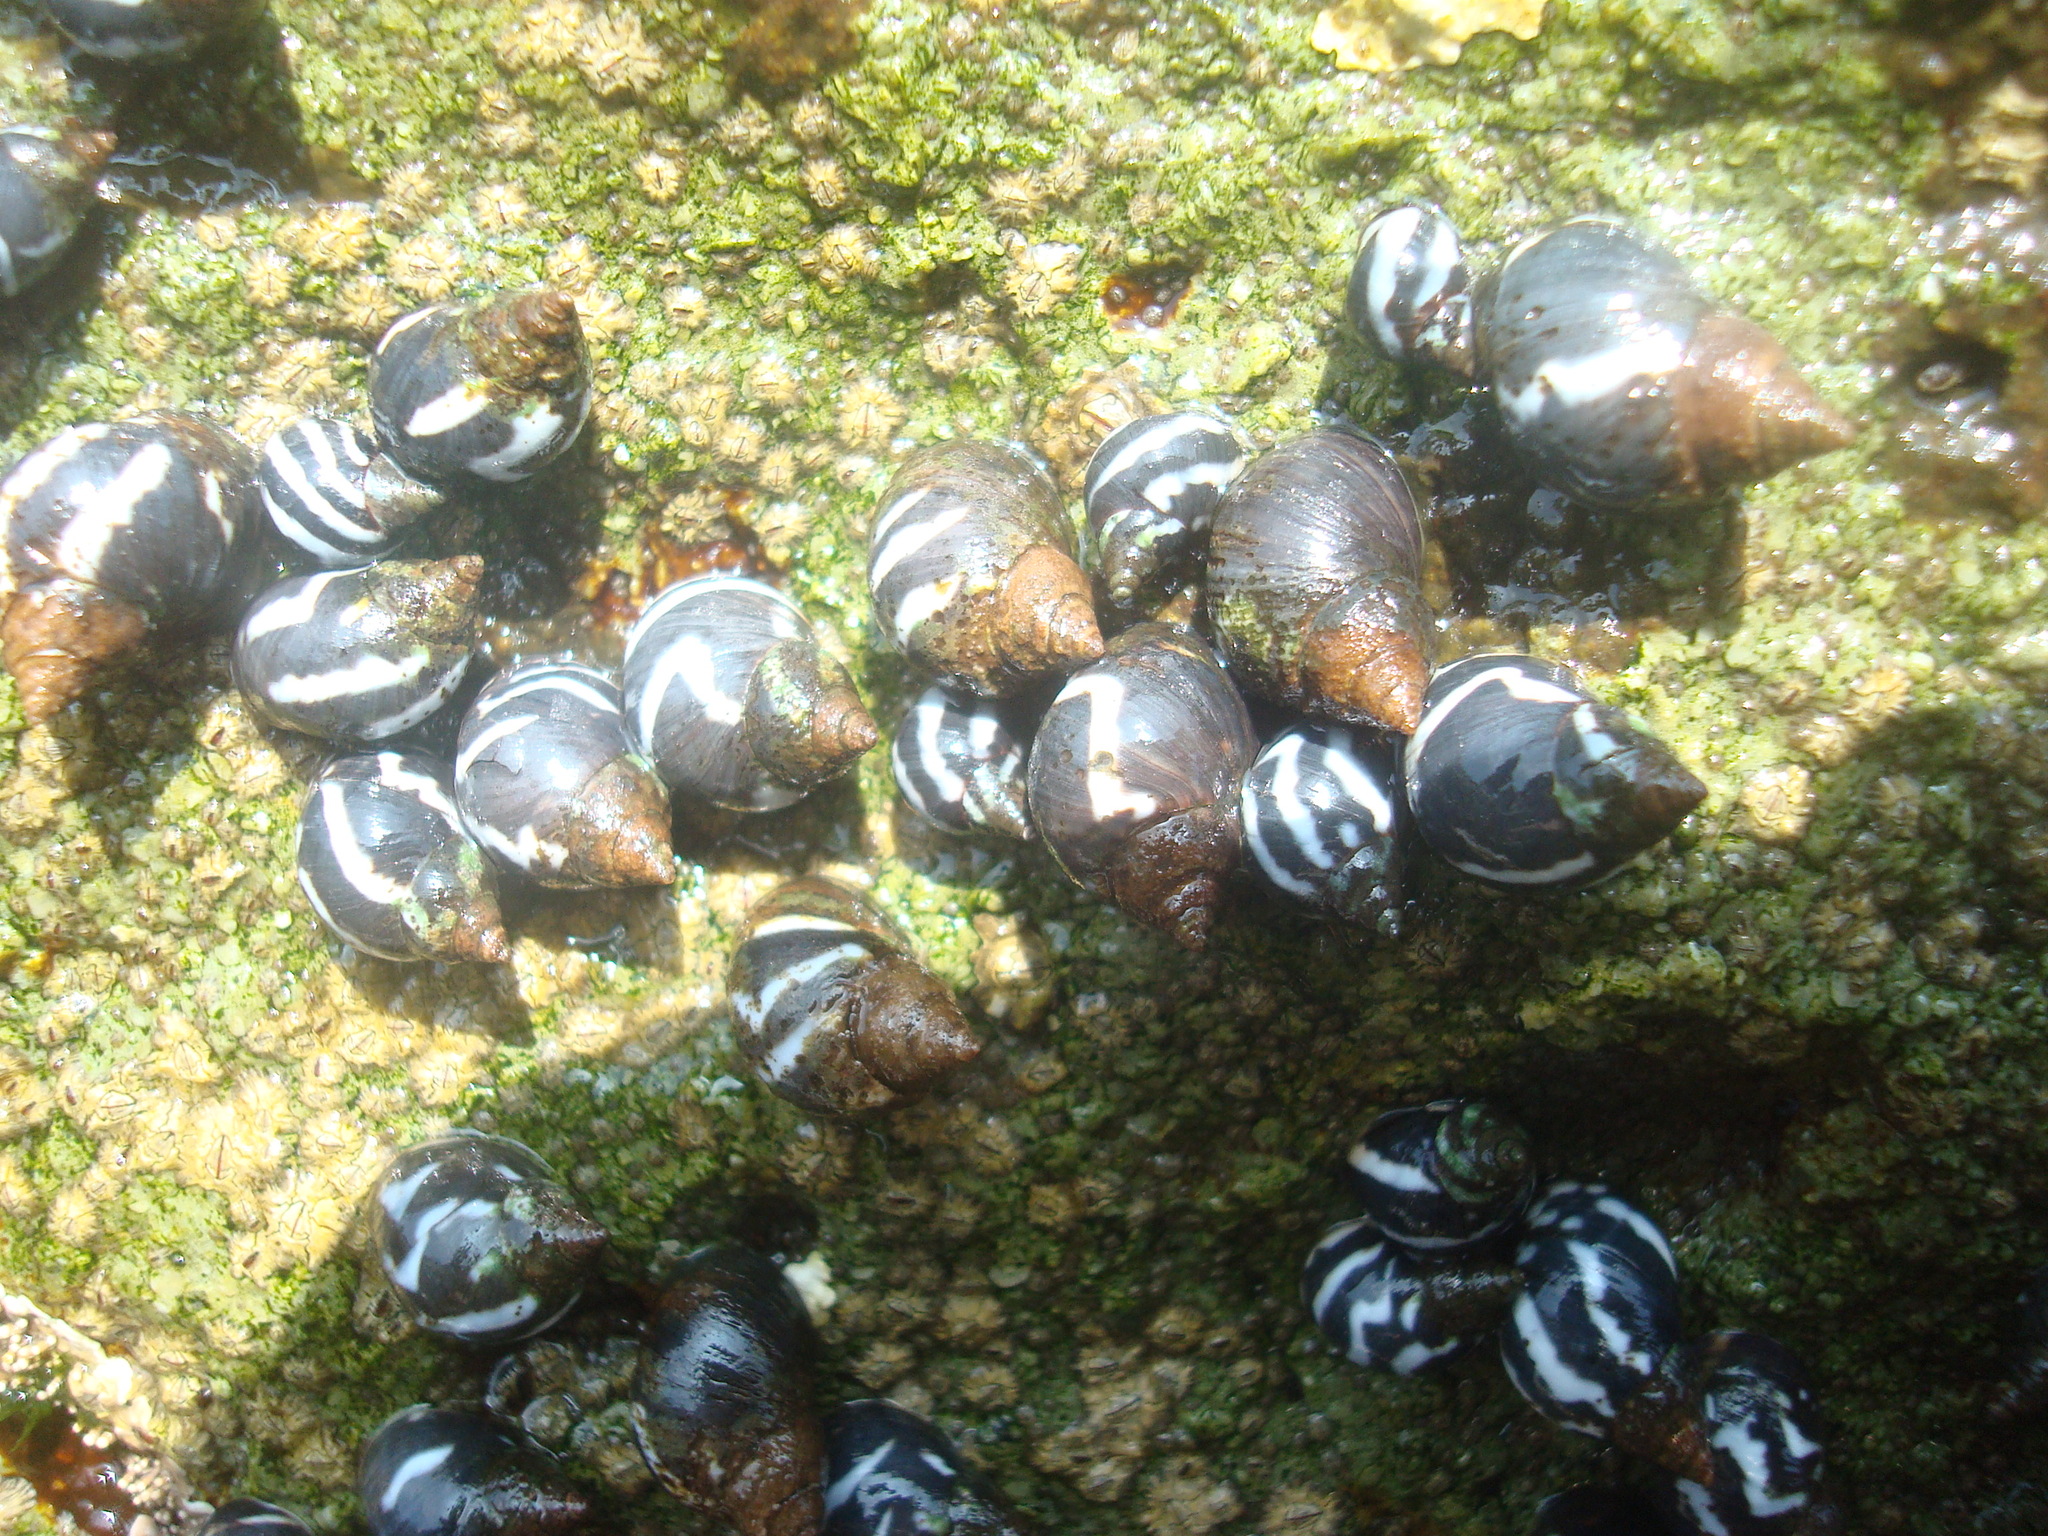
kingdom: Animalia
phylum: Mollusca
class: Gastropoda
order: Littorinimorpha
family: Littorinidae
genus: Echinolittorina
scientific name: Echinolittorina peruviana
